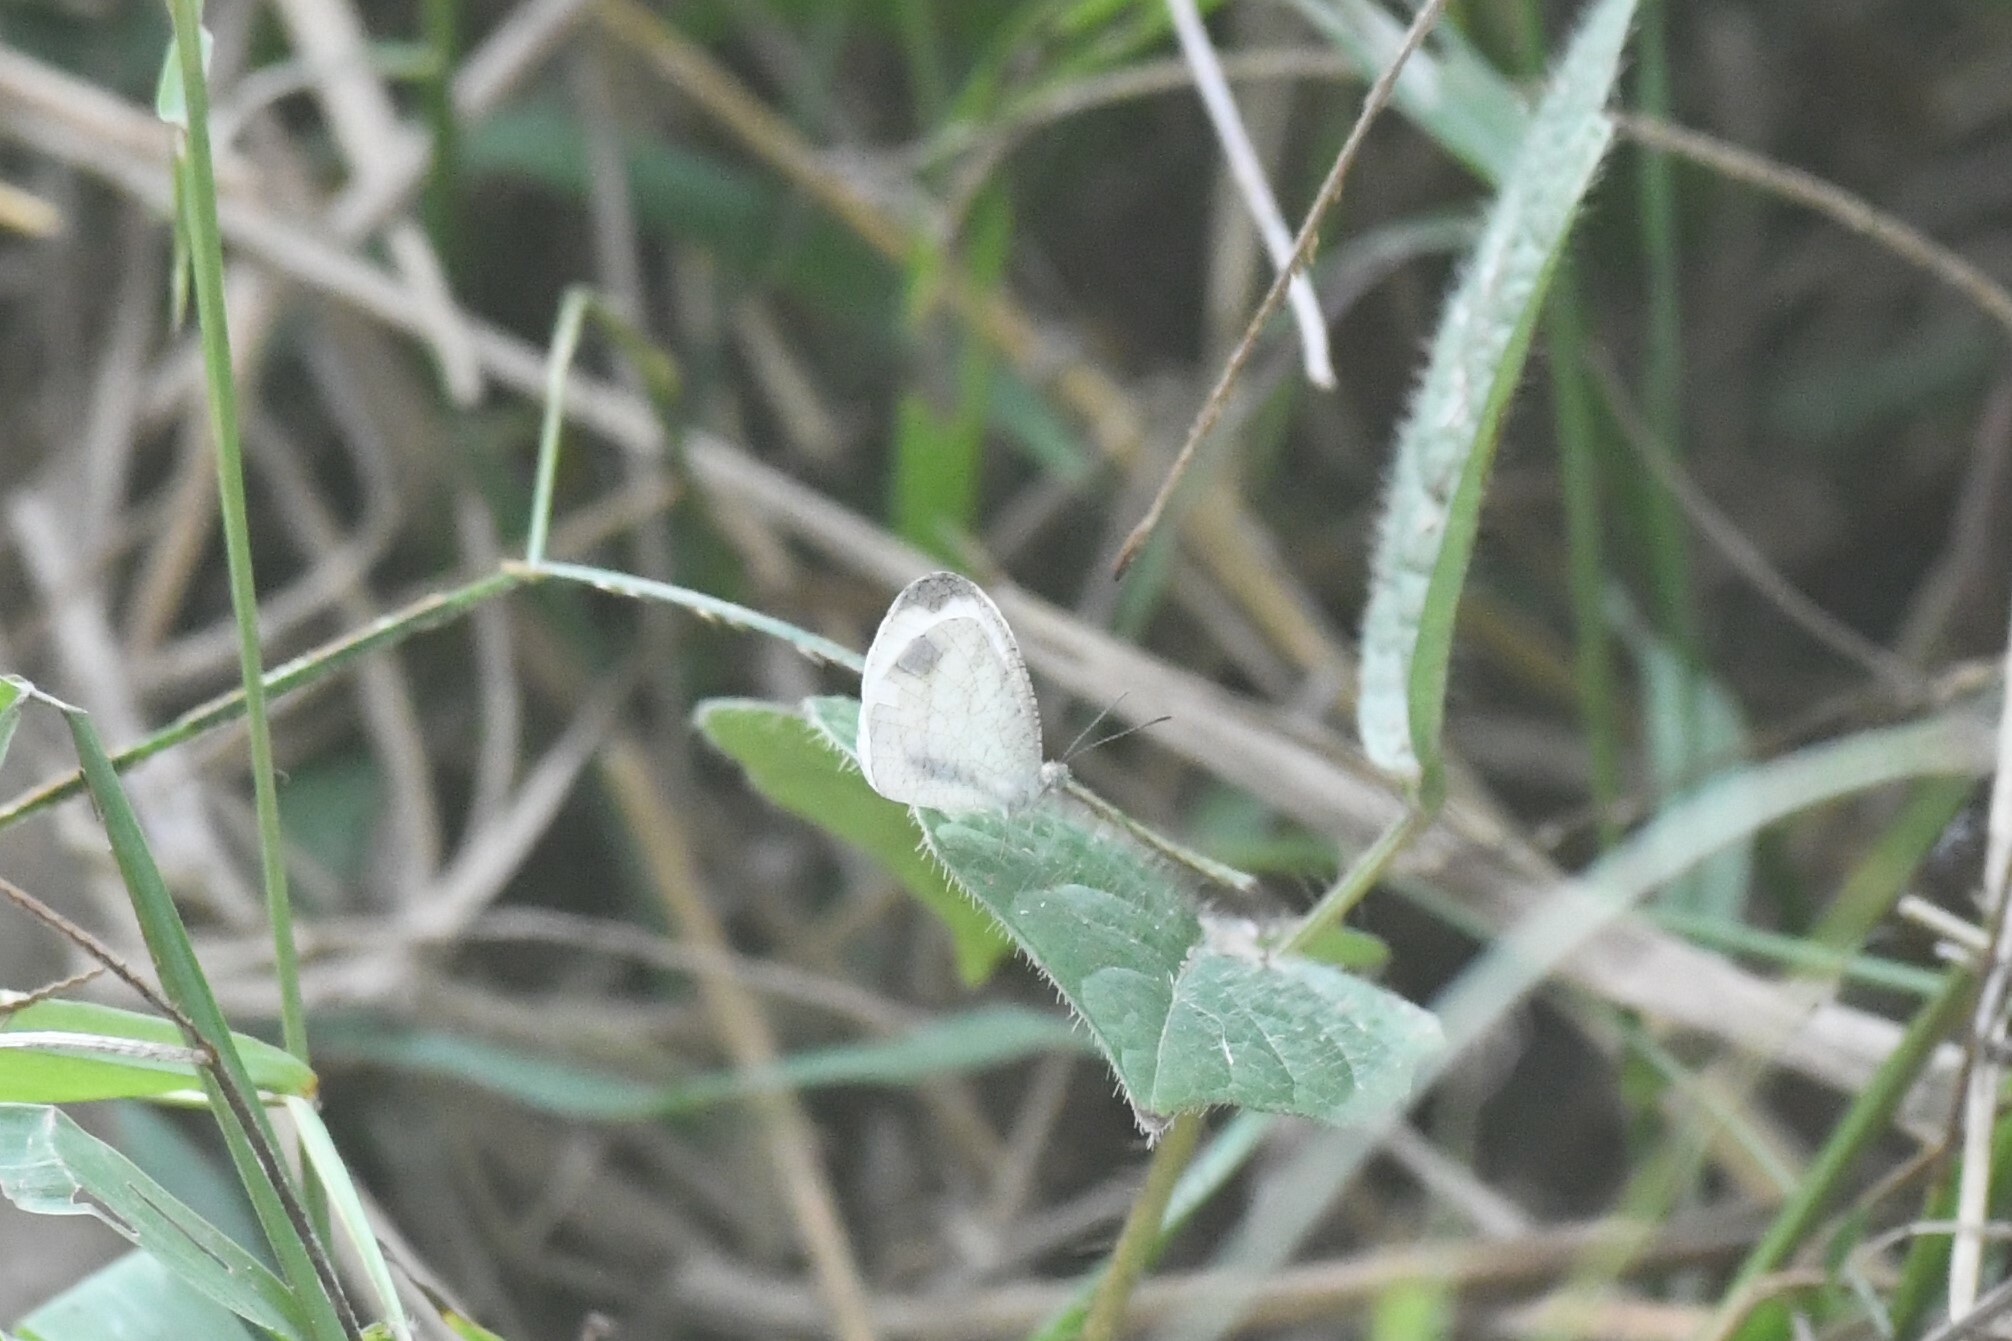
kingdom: Animalia
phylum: Arthropoda
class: Insecta
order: Lepidoptera
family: Pieridae
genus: Leptosia
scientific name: Leptosia nina
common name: Psyche
